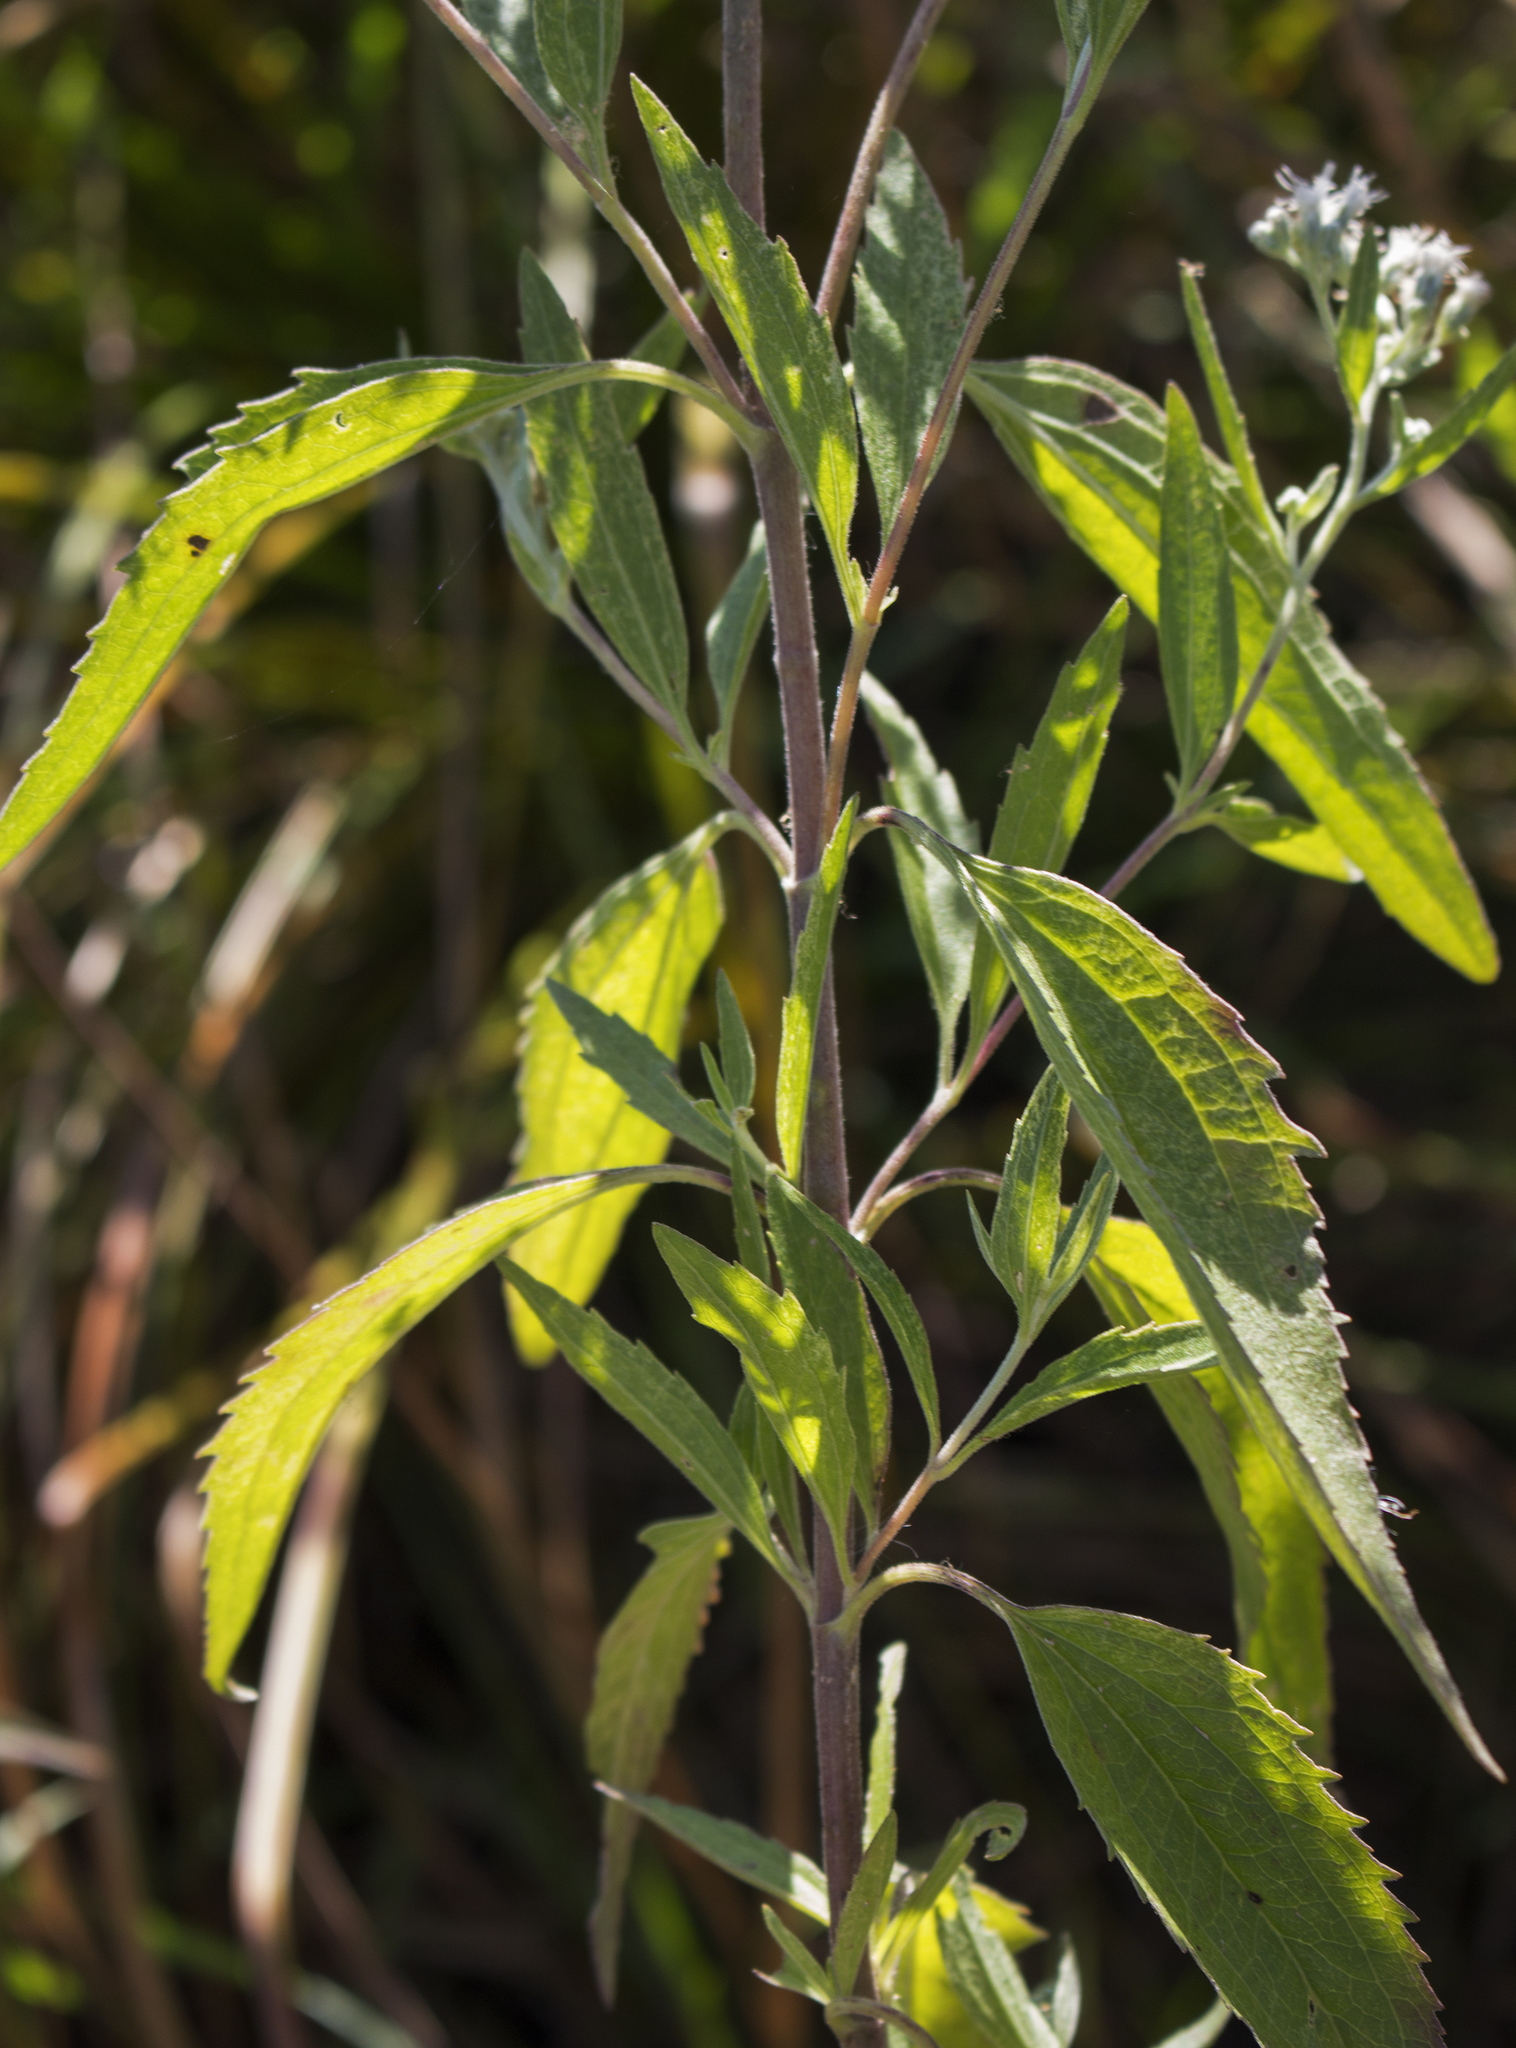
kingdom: Plantae
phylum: Tracheophyta
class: Magnoliopsida
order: Asterales
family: Asteraceae
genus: Eupatorium
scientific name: Eupatorium serotinum
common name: Late boneset
